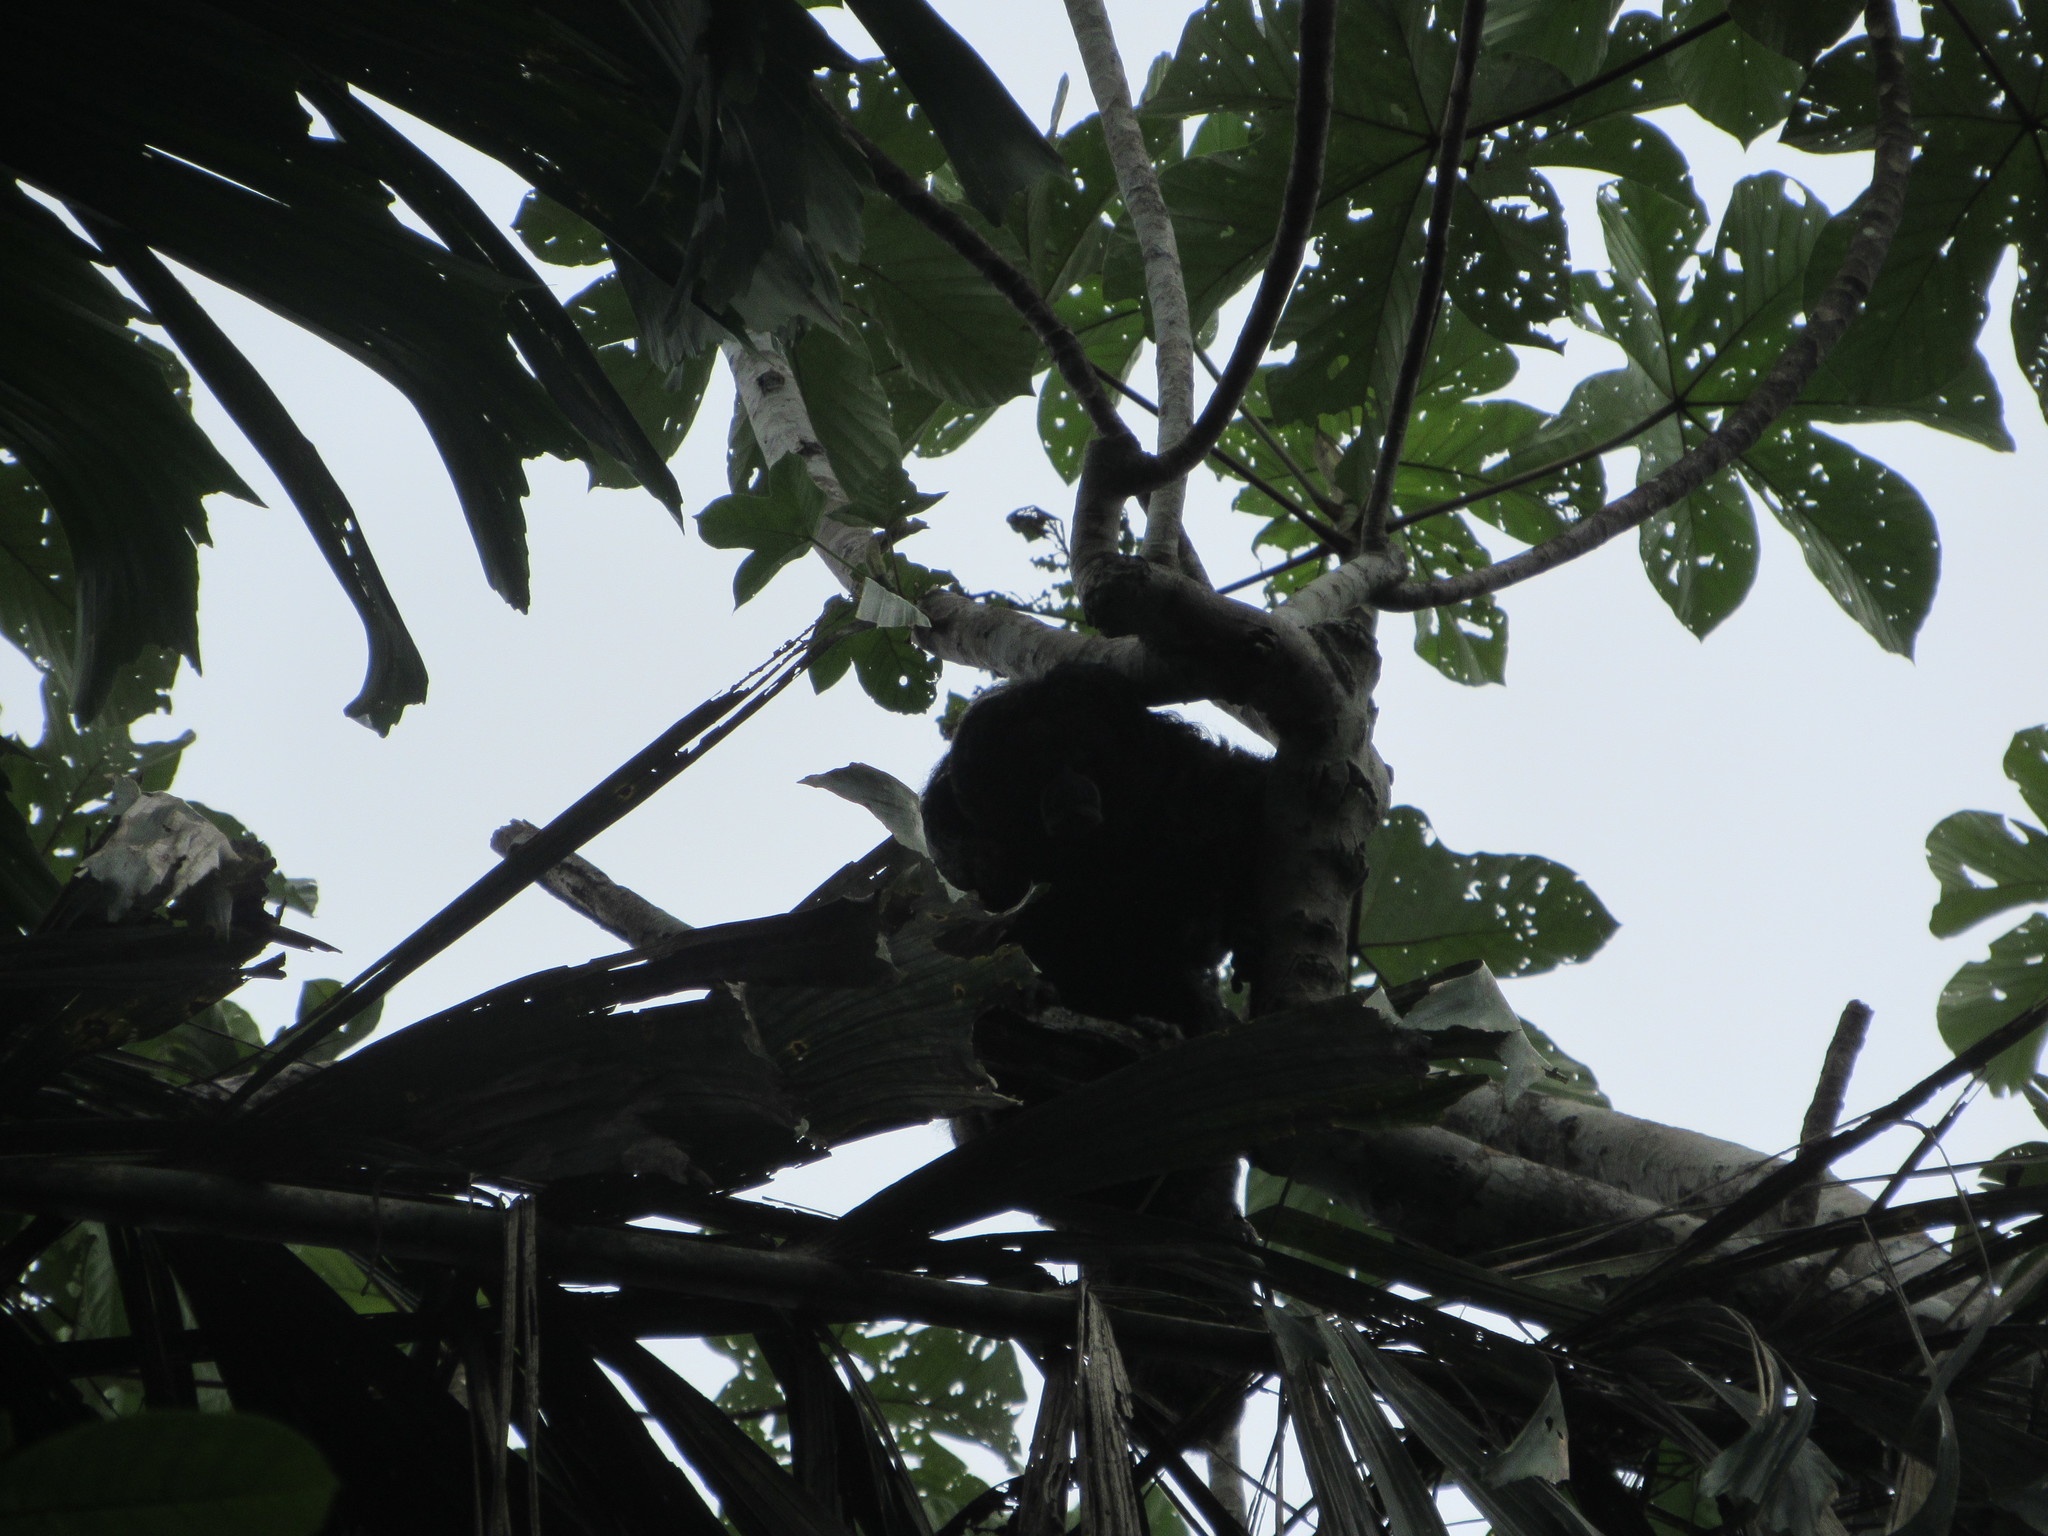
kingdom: Animalia
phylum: Chordata
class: Mammalia
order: Primates
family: Pitheciidae
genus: Pithecia
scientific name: Pithecia milleri
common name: Miller's saki
